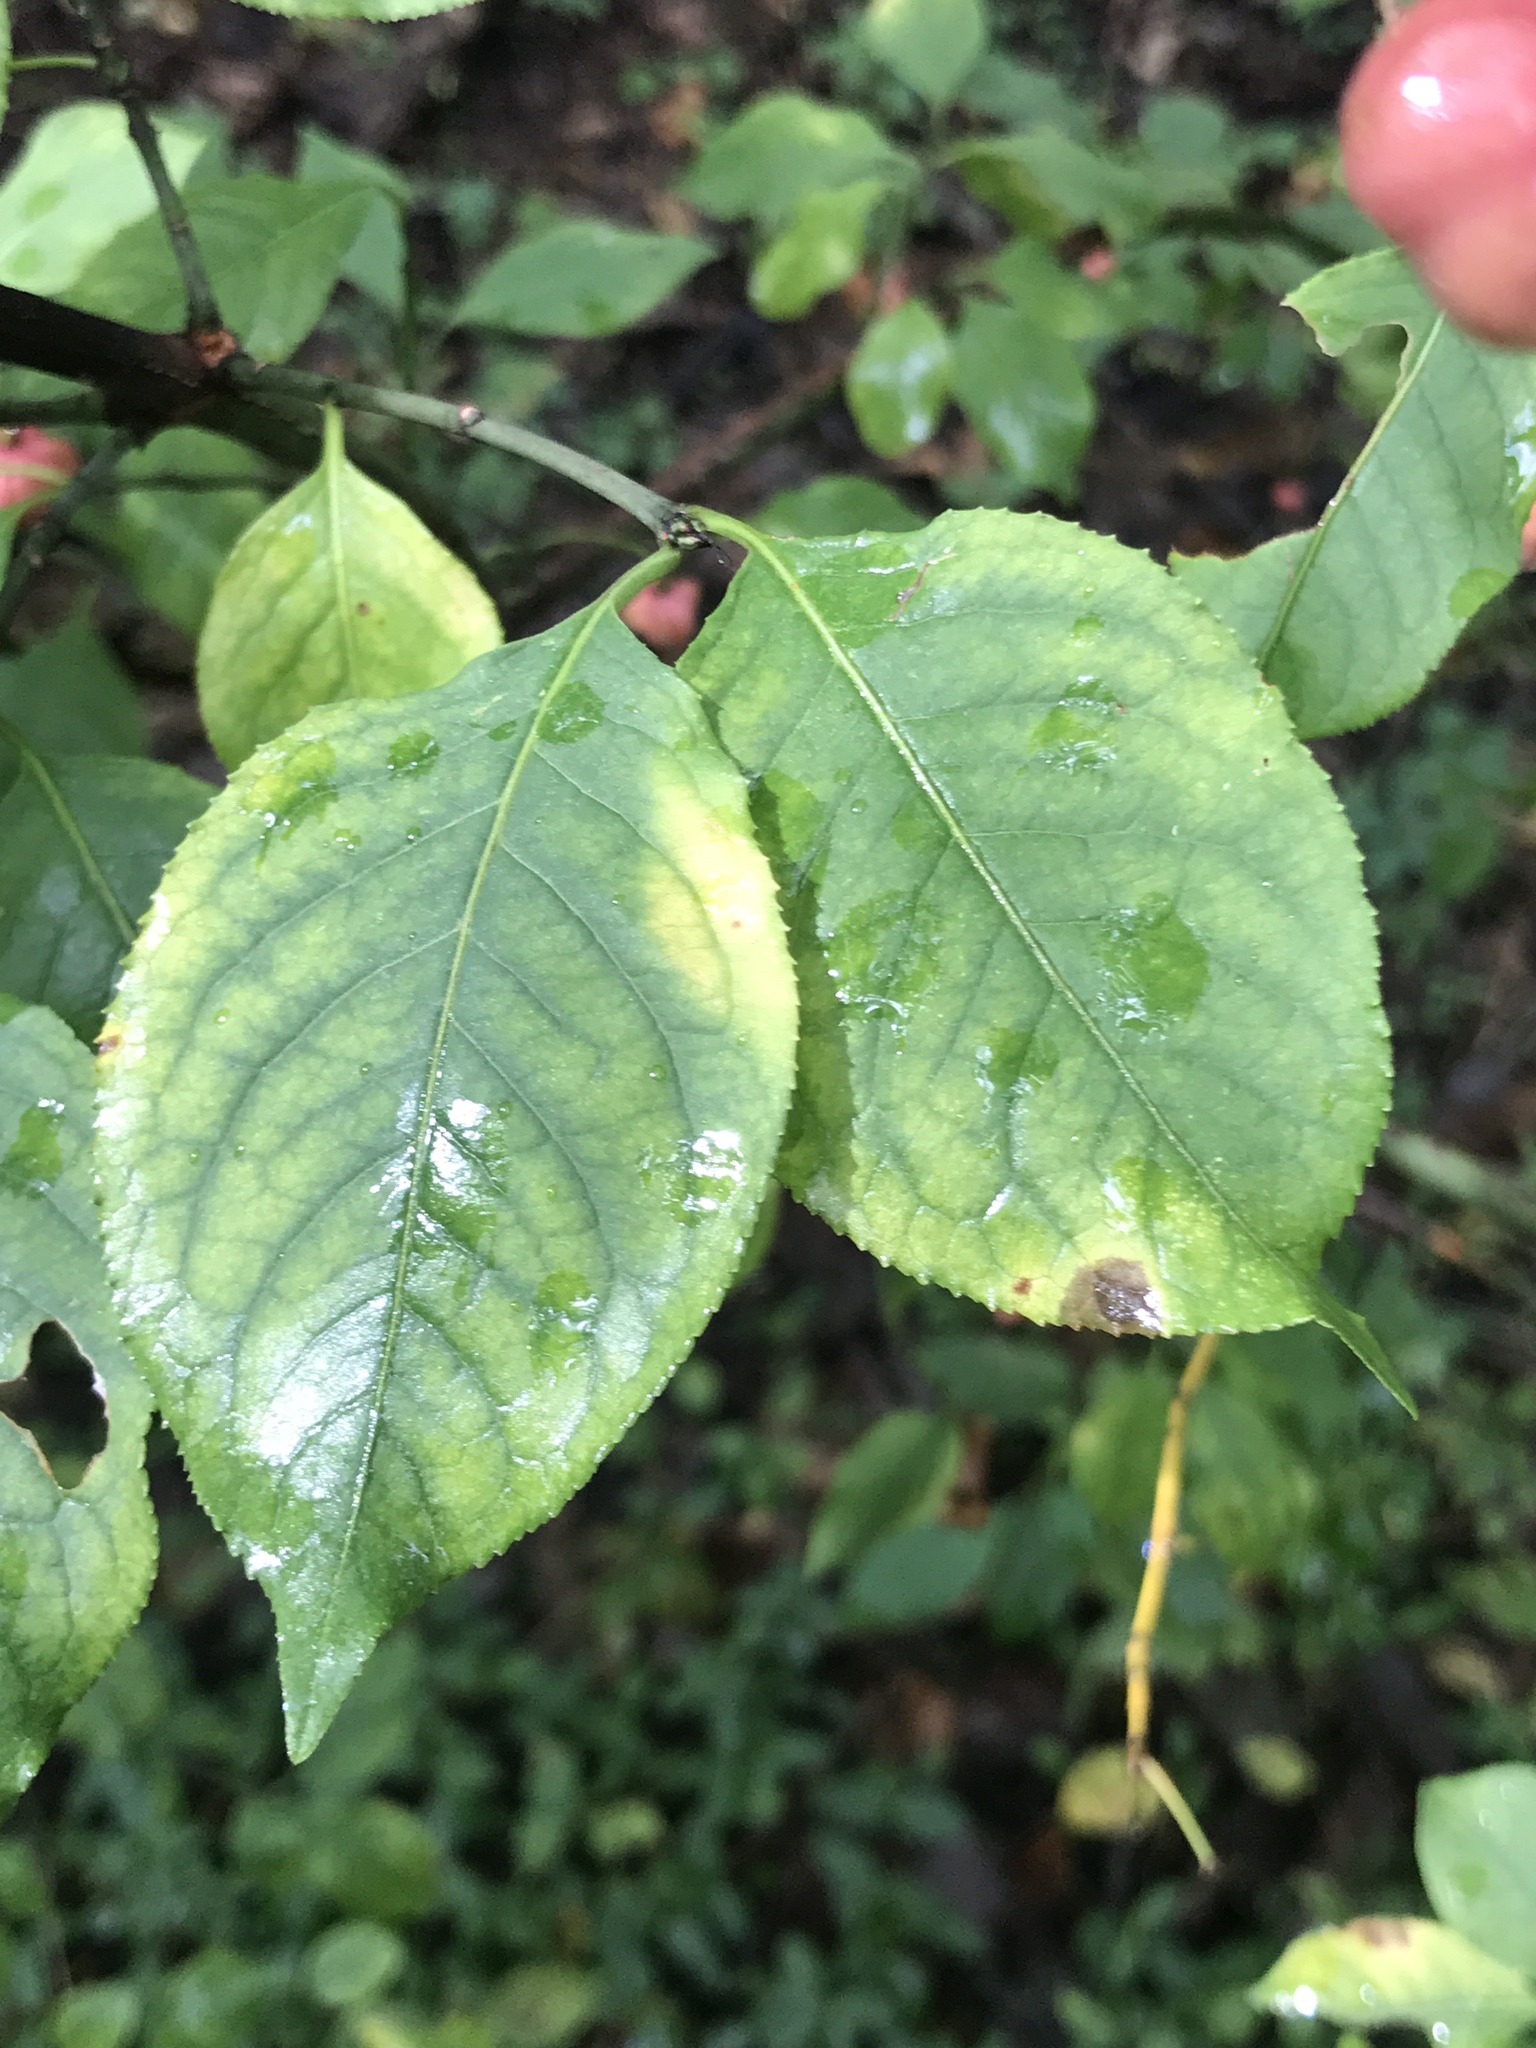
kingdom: Plantae
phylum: Tracheophyta
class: Magnoliopsida
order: Celastrales
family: Celastraceae
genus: Euonymus
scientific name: Euonymus atropurpureus
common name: Eastern wahoo
